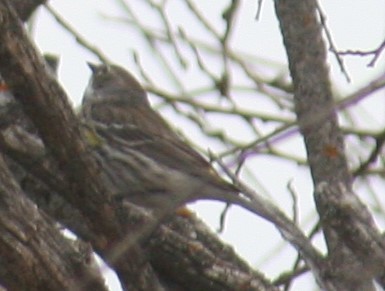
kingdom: Animalia
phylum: Chordata
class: Aves
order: Passeriformes
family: Parulidae
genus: Setophaga
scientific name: Setophaga coronata
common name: Myrtle warbler
